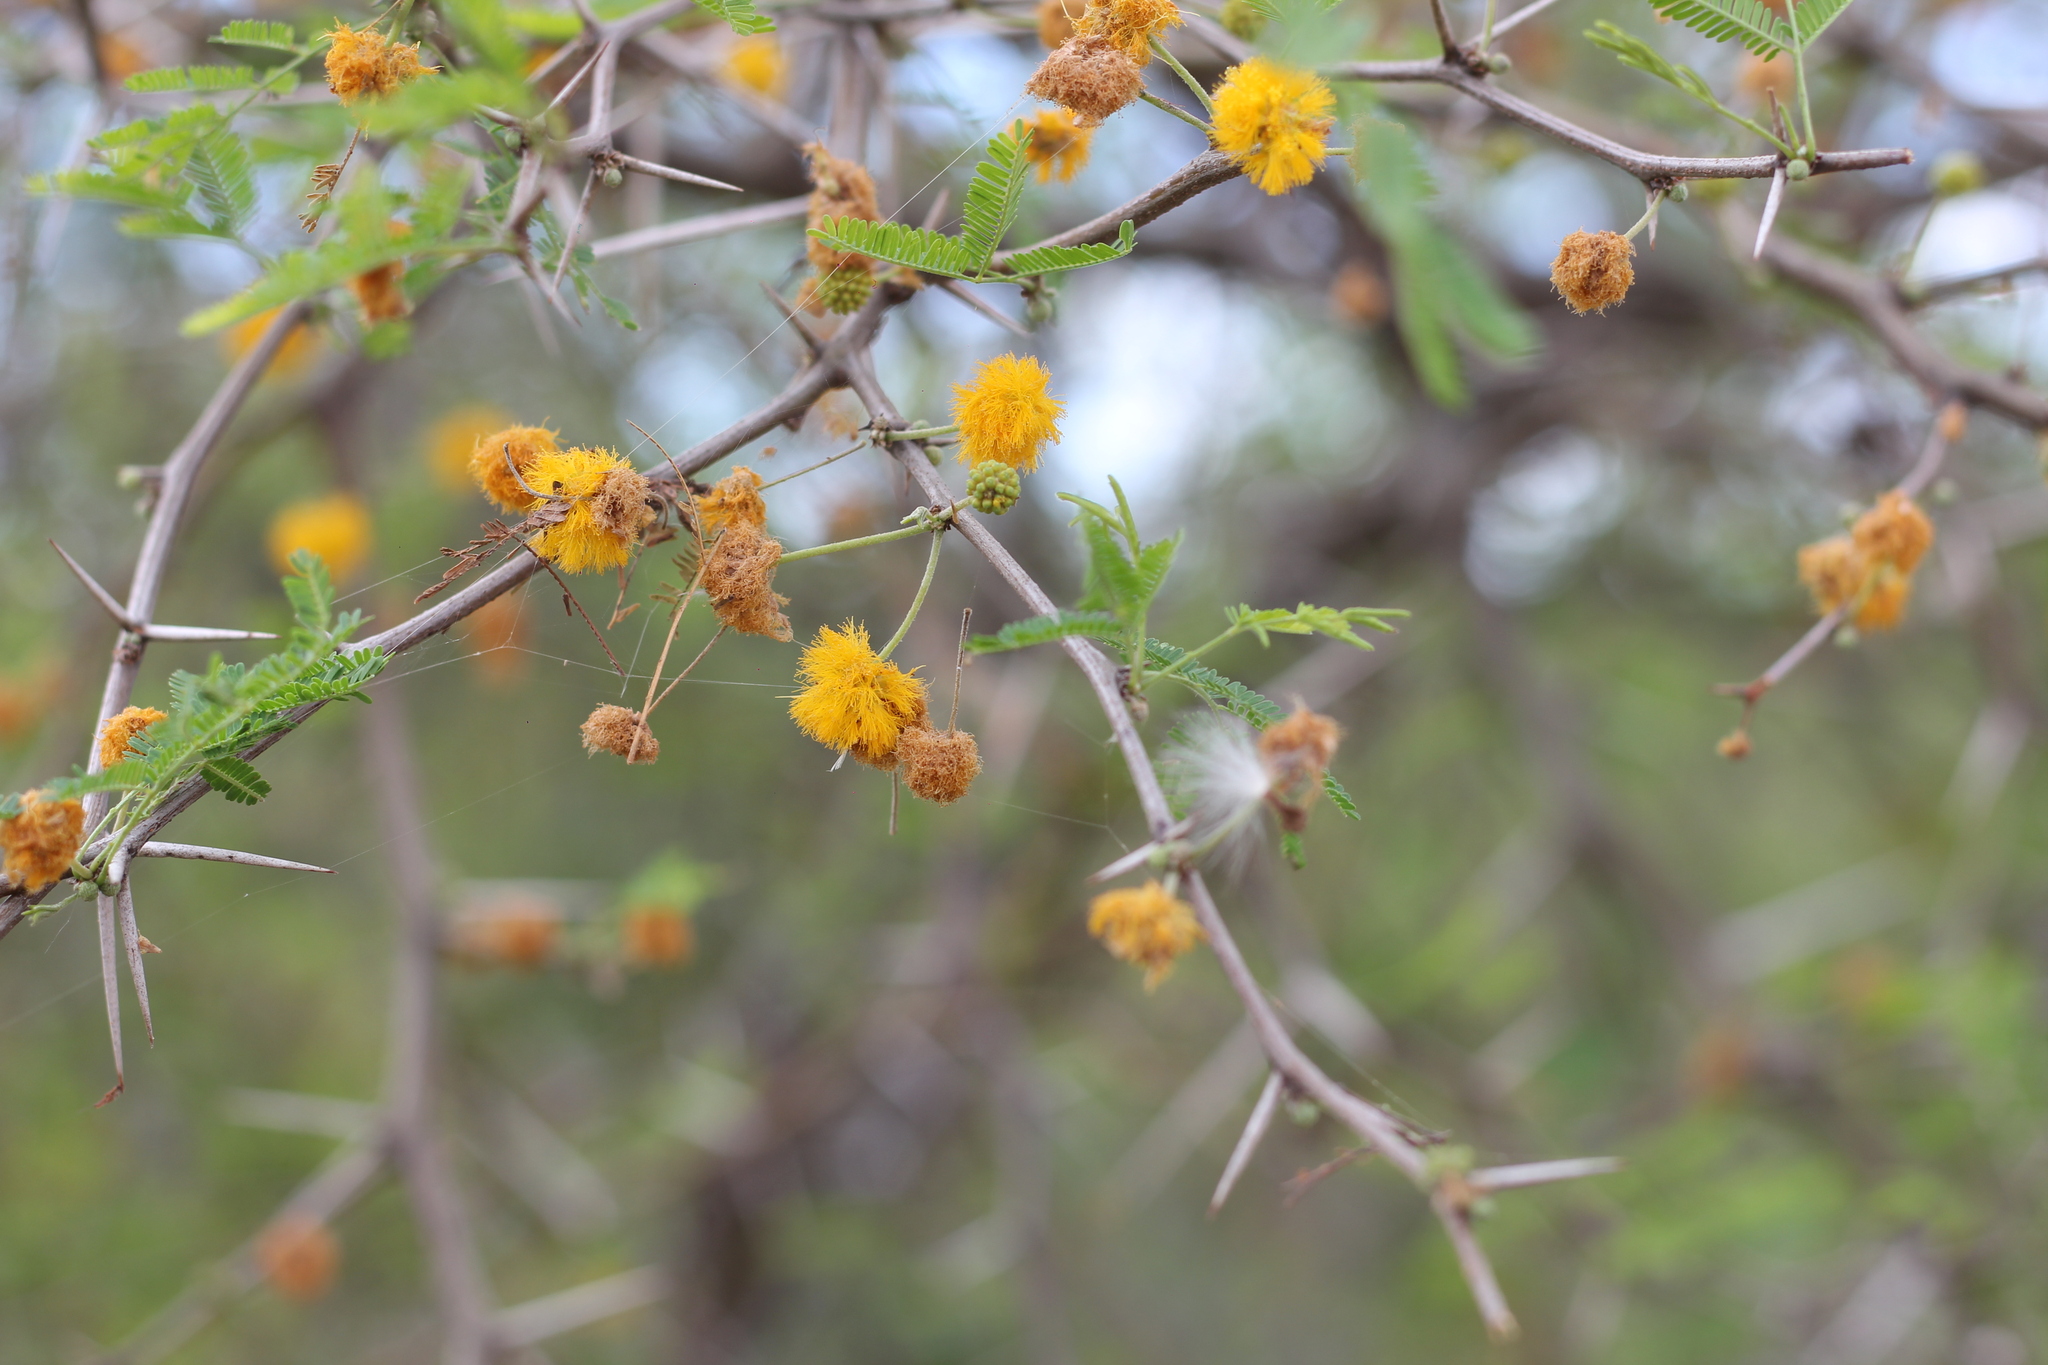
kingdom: Plantae
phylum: Tracheophyta
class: Magnoliopsida
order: Fabales
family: Fabaceae
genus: Vachellia
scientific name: Vachellia caven
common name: Roman cassie
